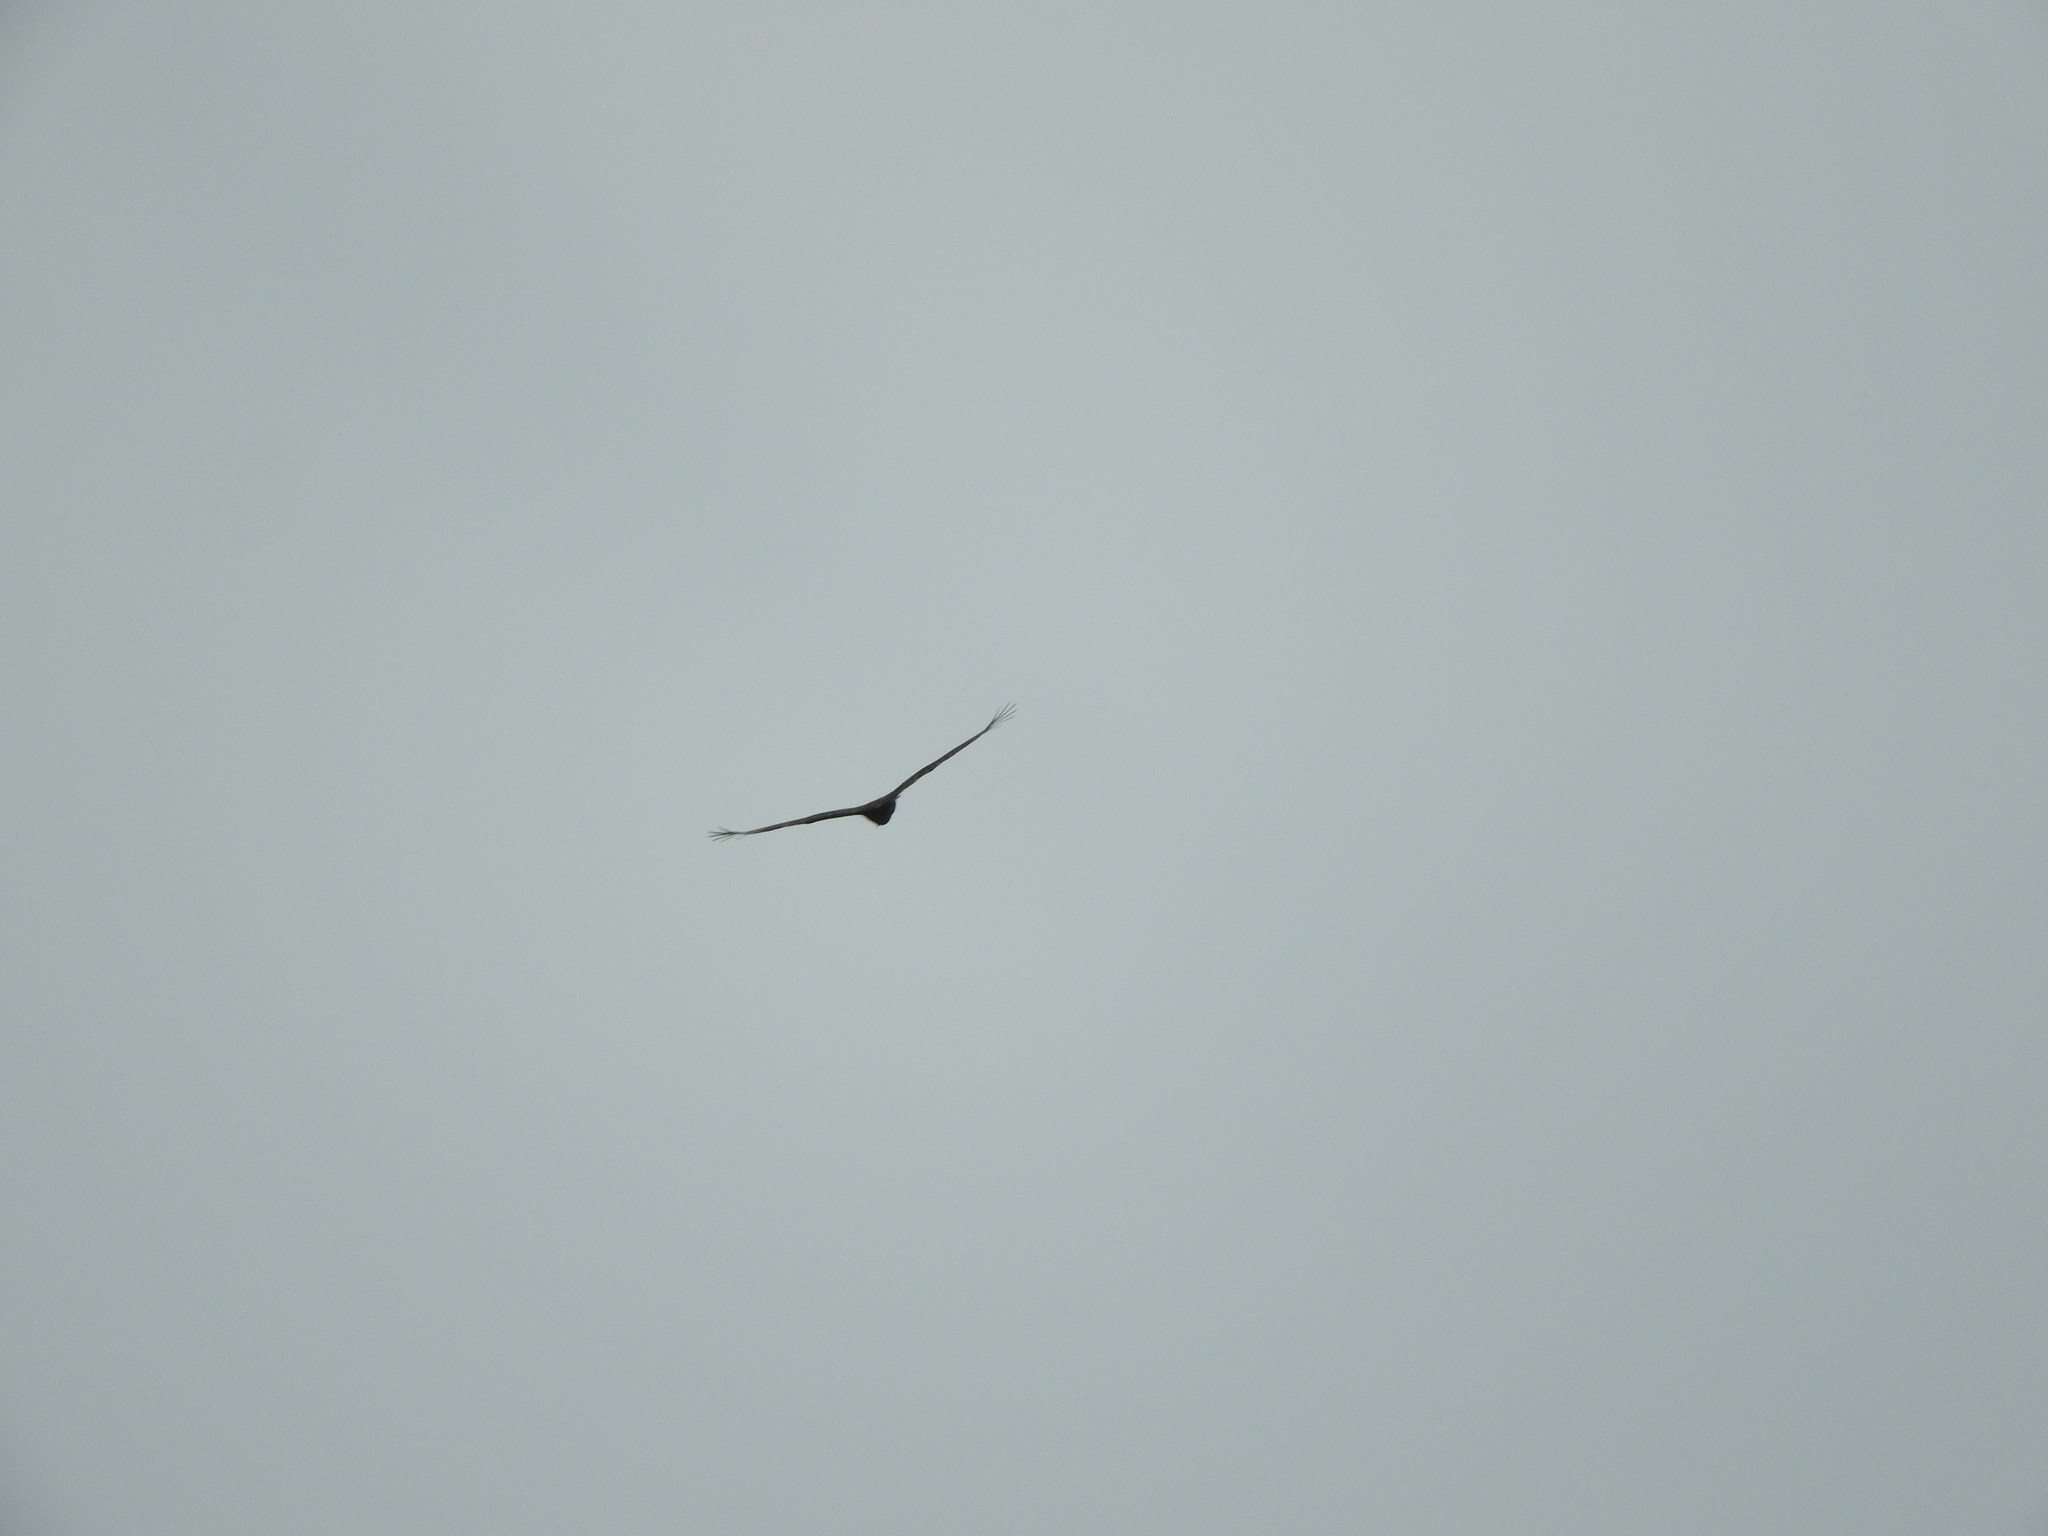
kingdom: Animalia
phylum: Chordata
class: Aves
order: Accipitriformes
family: Cathartidae
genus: Cathartes
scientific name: Cathartes aura
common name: Turkey vulture
